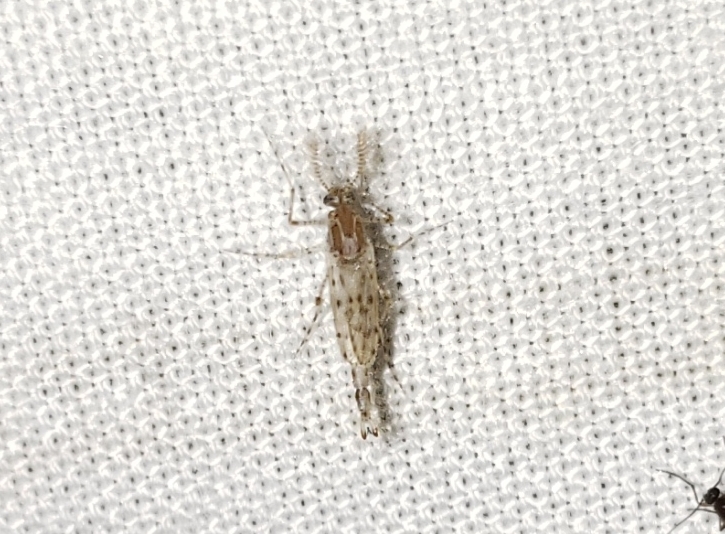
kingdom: Animalia
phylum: Arthropoda
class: Insecta
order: Diptera
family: Chaoboridae
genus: Chaoborus
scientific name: Chaoborus punctipennis
